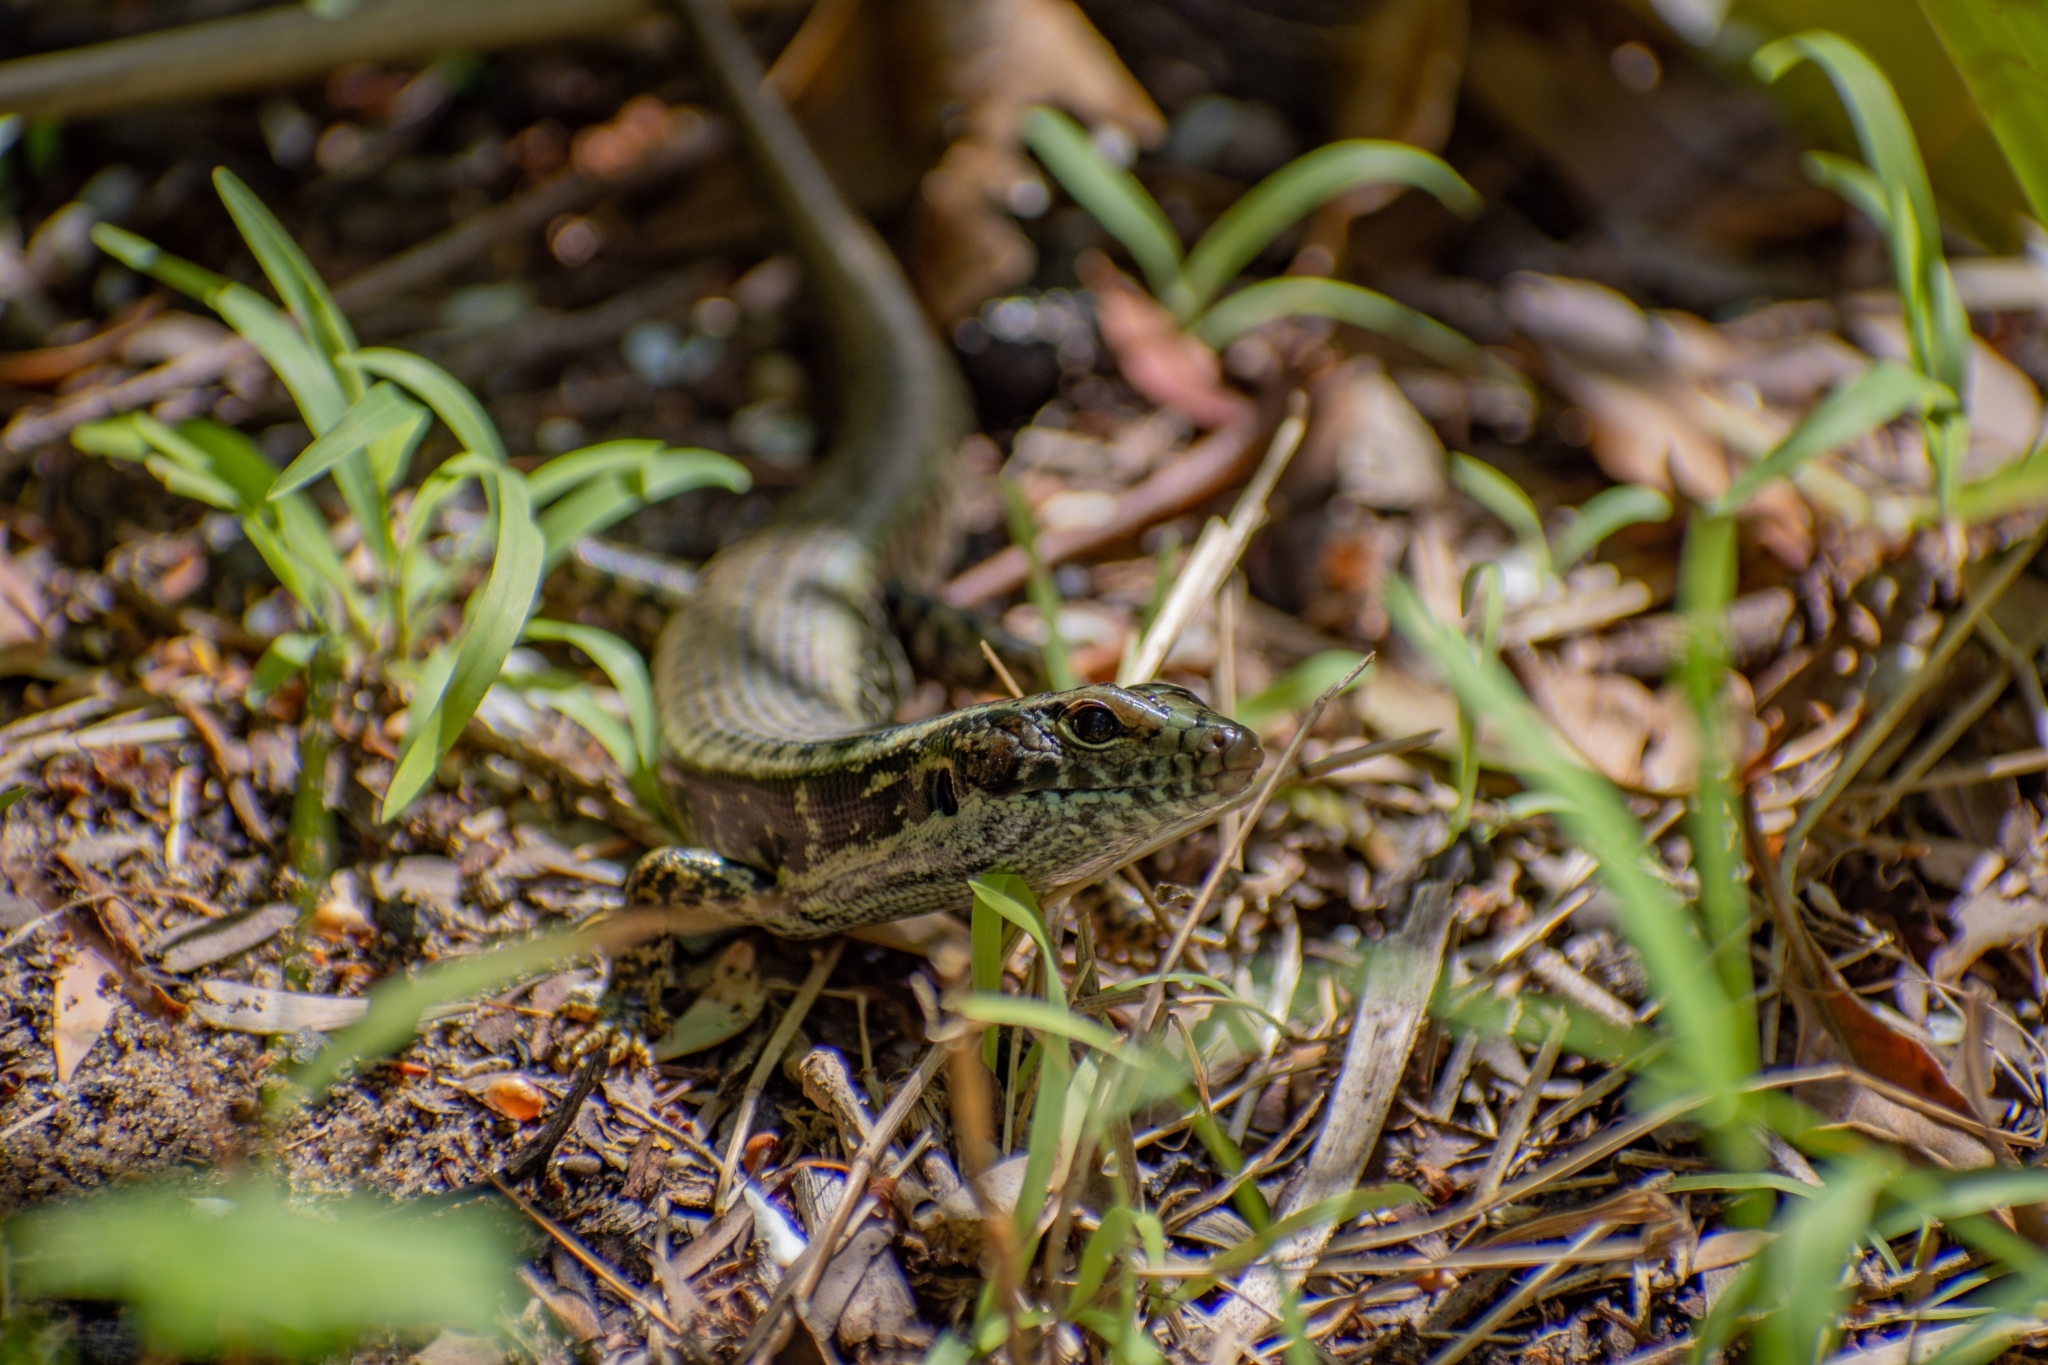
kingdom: Animalia
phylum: Chordata
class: Squamata
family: Scincidae
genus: Eulamprus
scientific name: Eulamprus quoyii
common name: Eastern water skink
